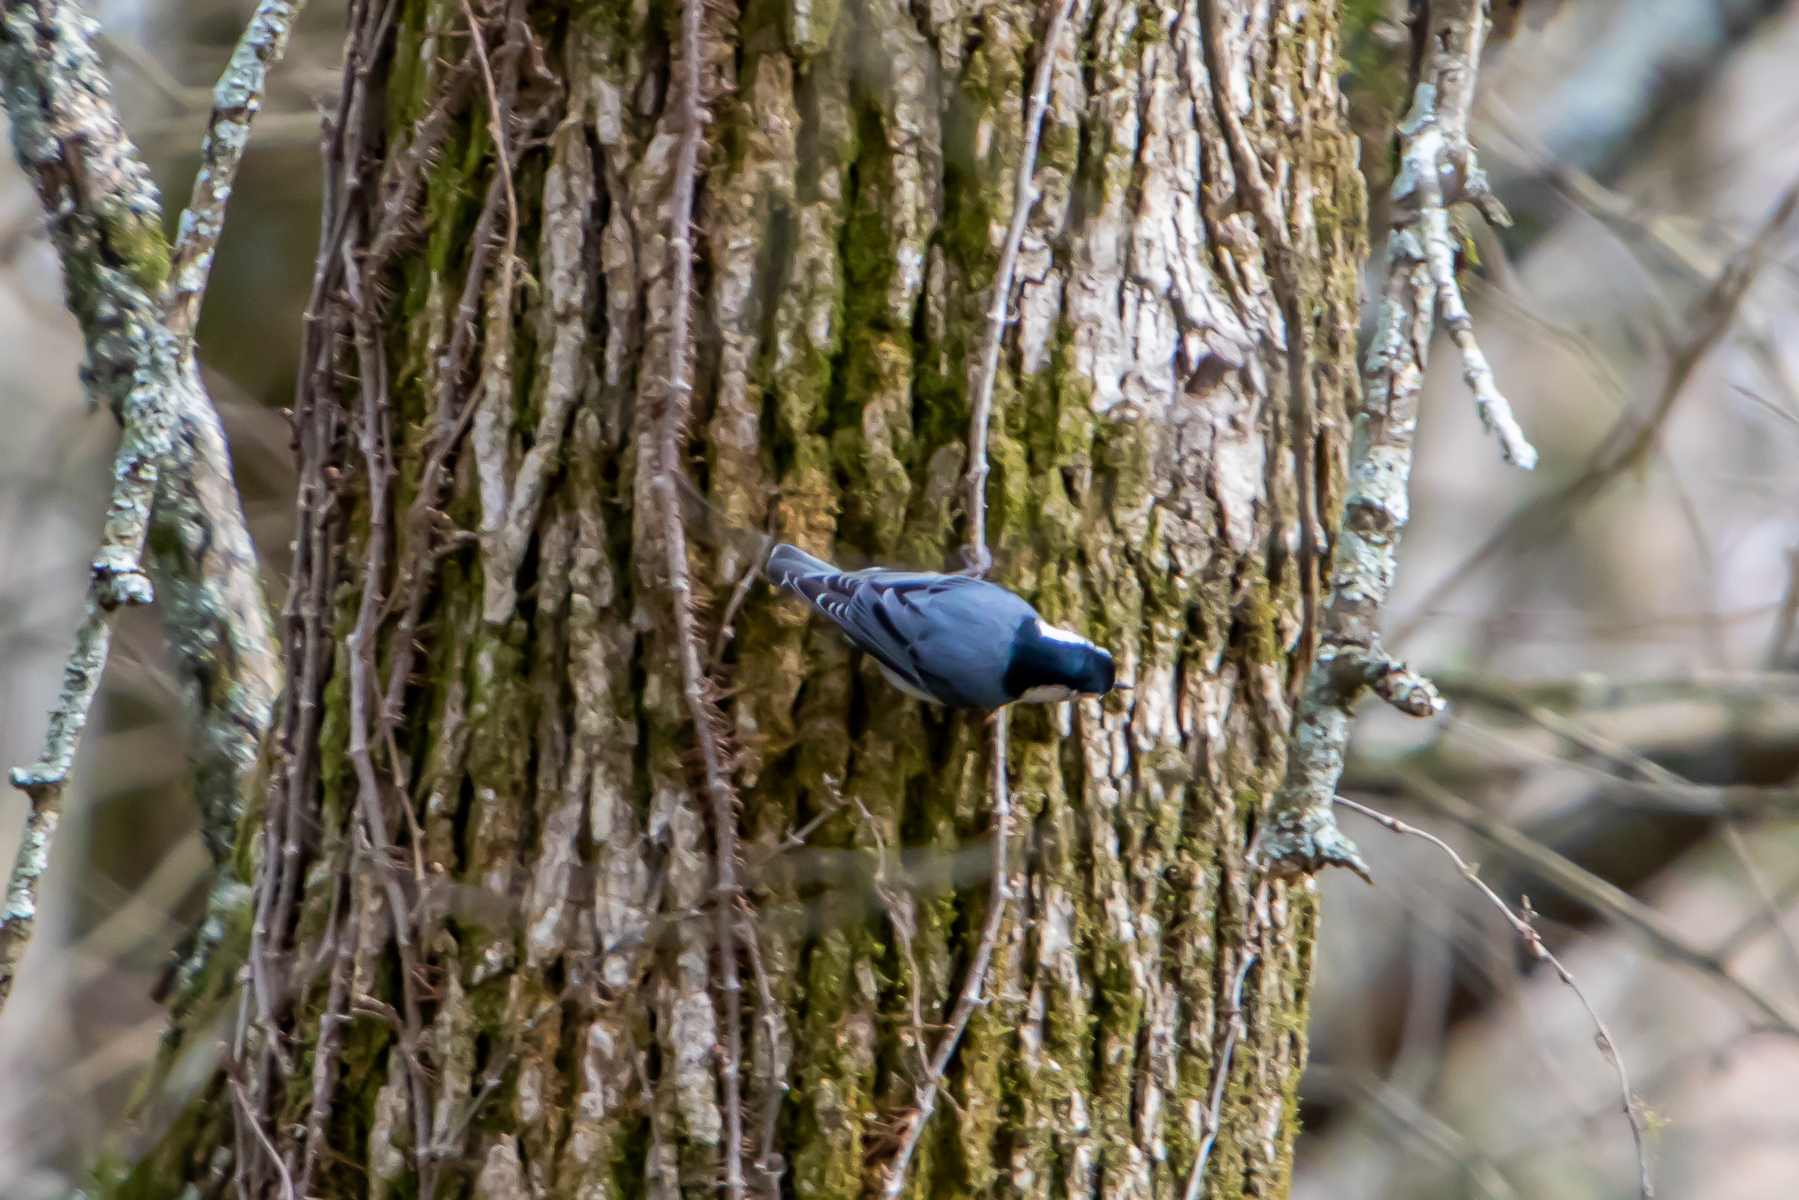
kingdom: Animalia
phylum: Chordata
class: Aves
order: Passeriformes
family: Sittidae
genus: Sitta
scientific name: Sitta carolinensis
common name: White-breasted nuthatch
